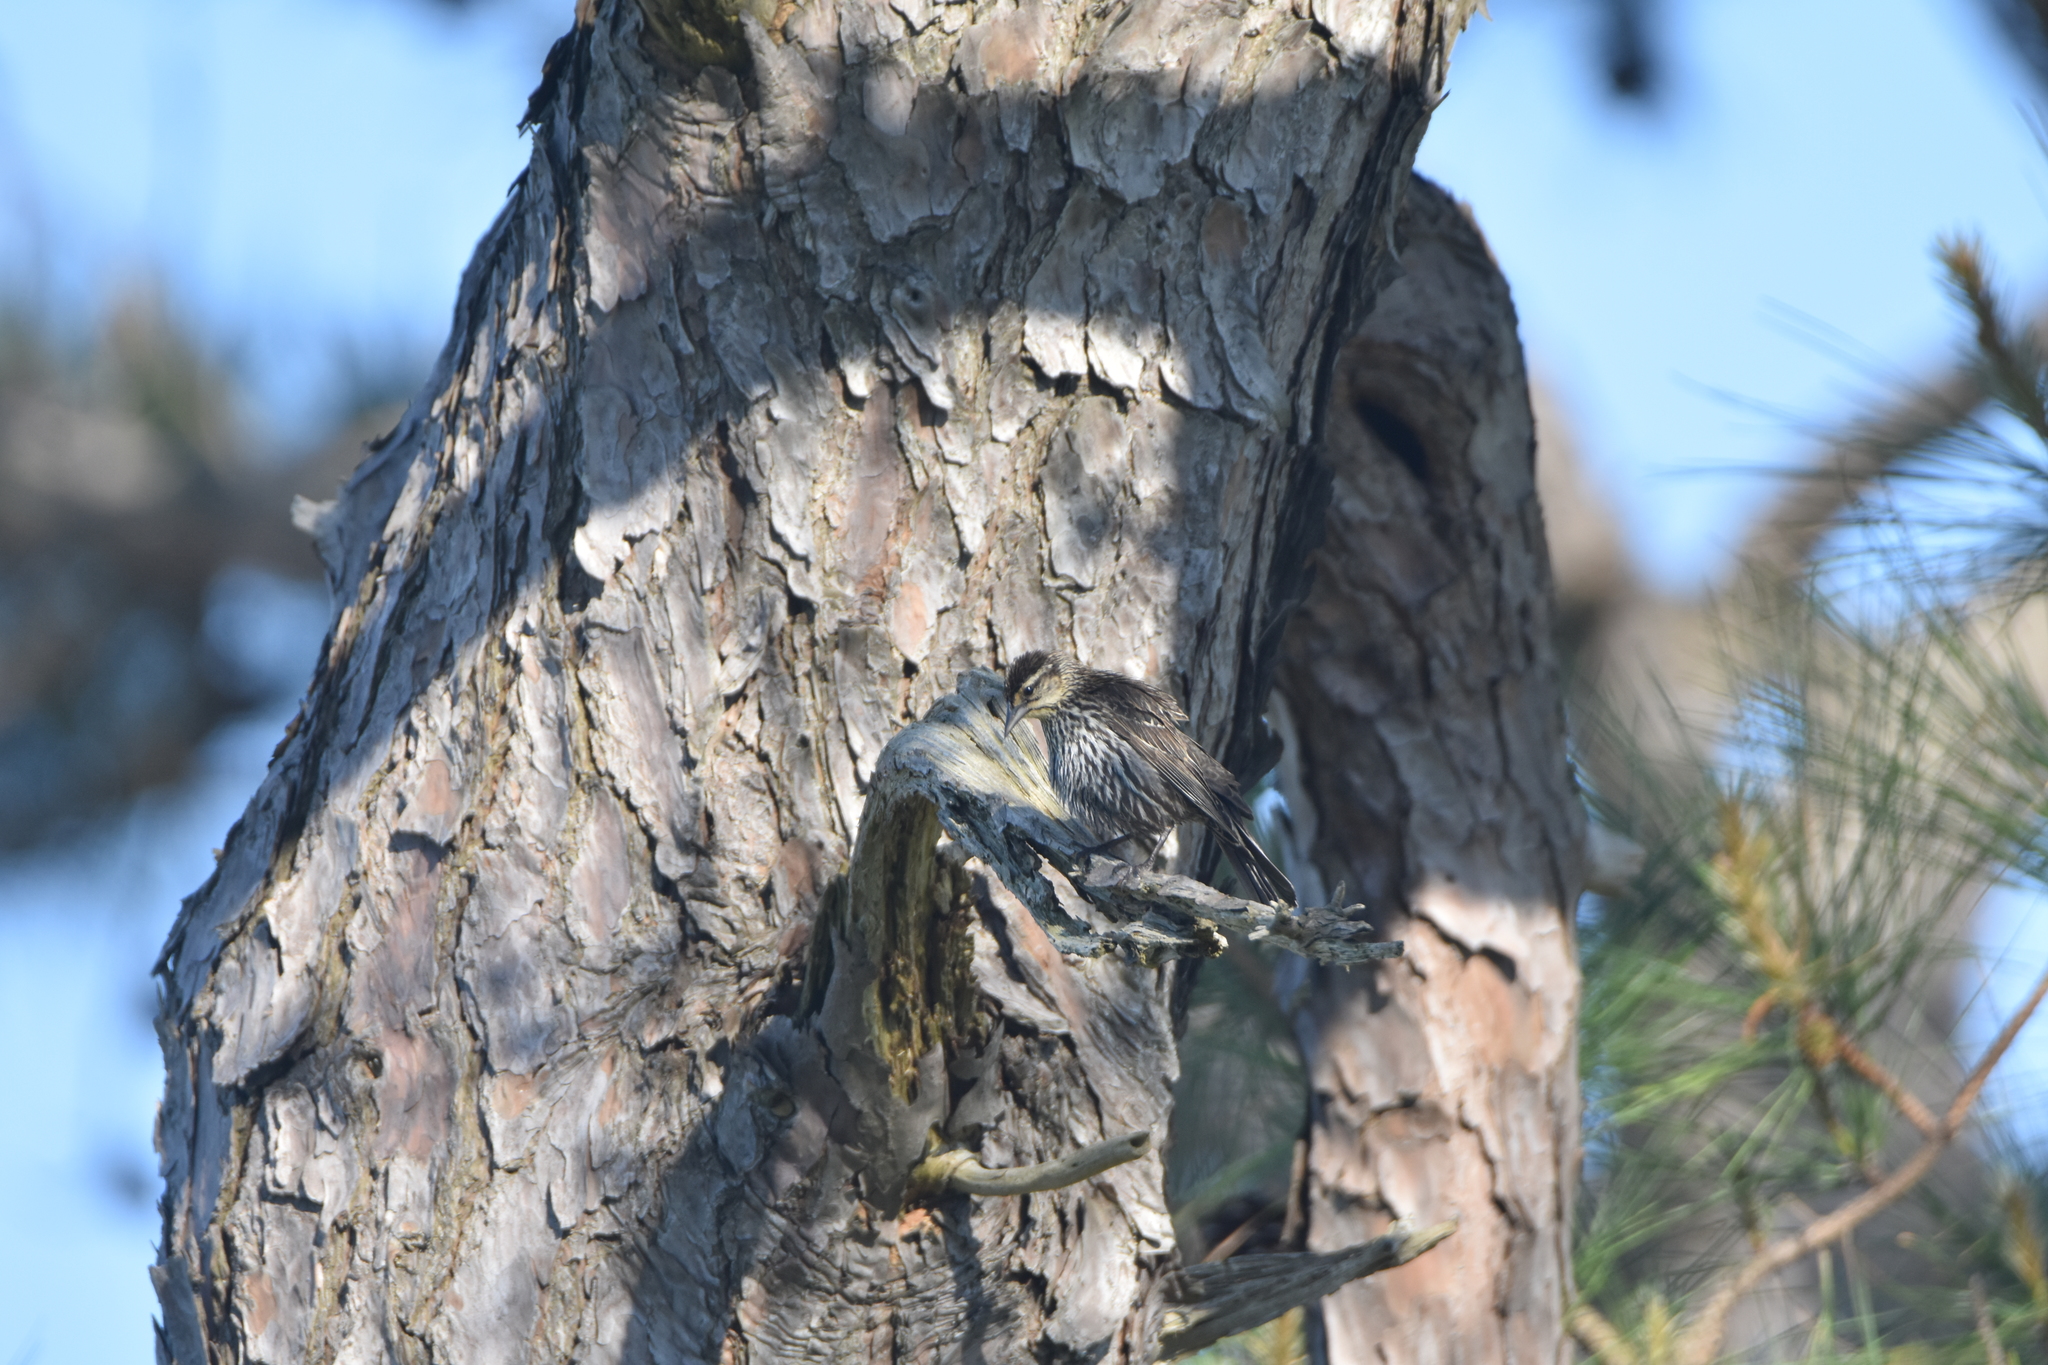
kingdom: Animalia
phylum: Chordata
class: Aves
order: Passeriformes
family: Icteridae
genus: Agelaius
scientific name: Agelaius phoeniceus
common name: Red-winged blackbird
